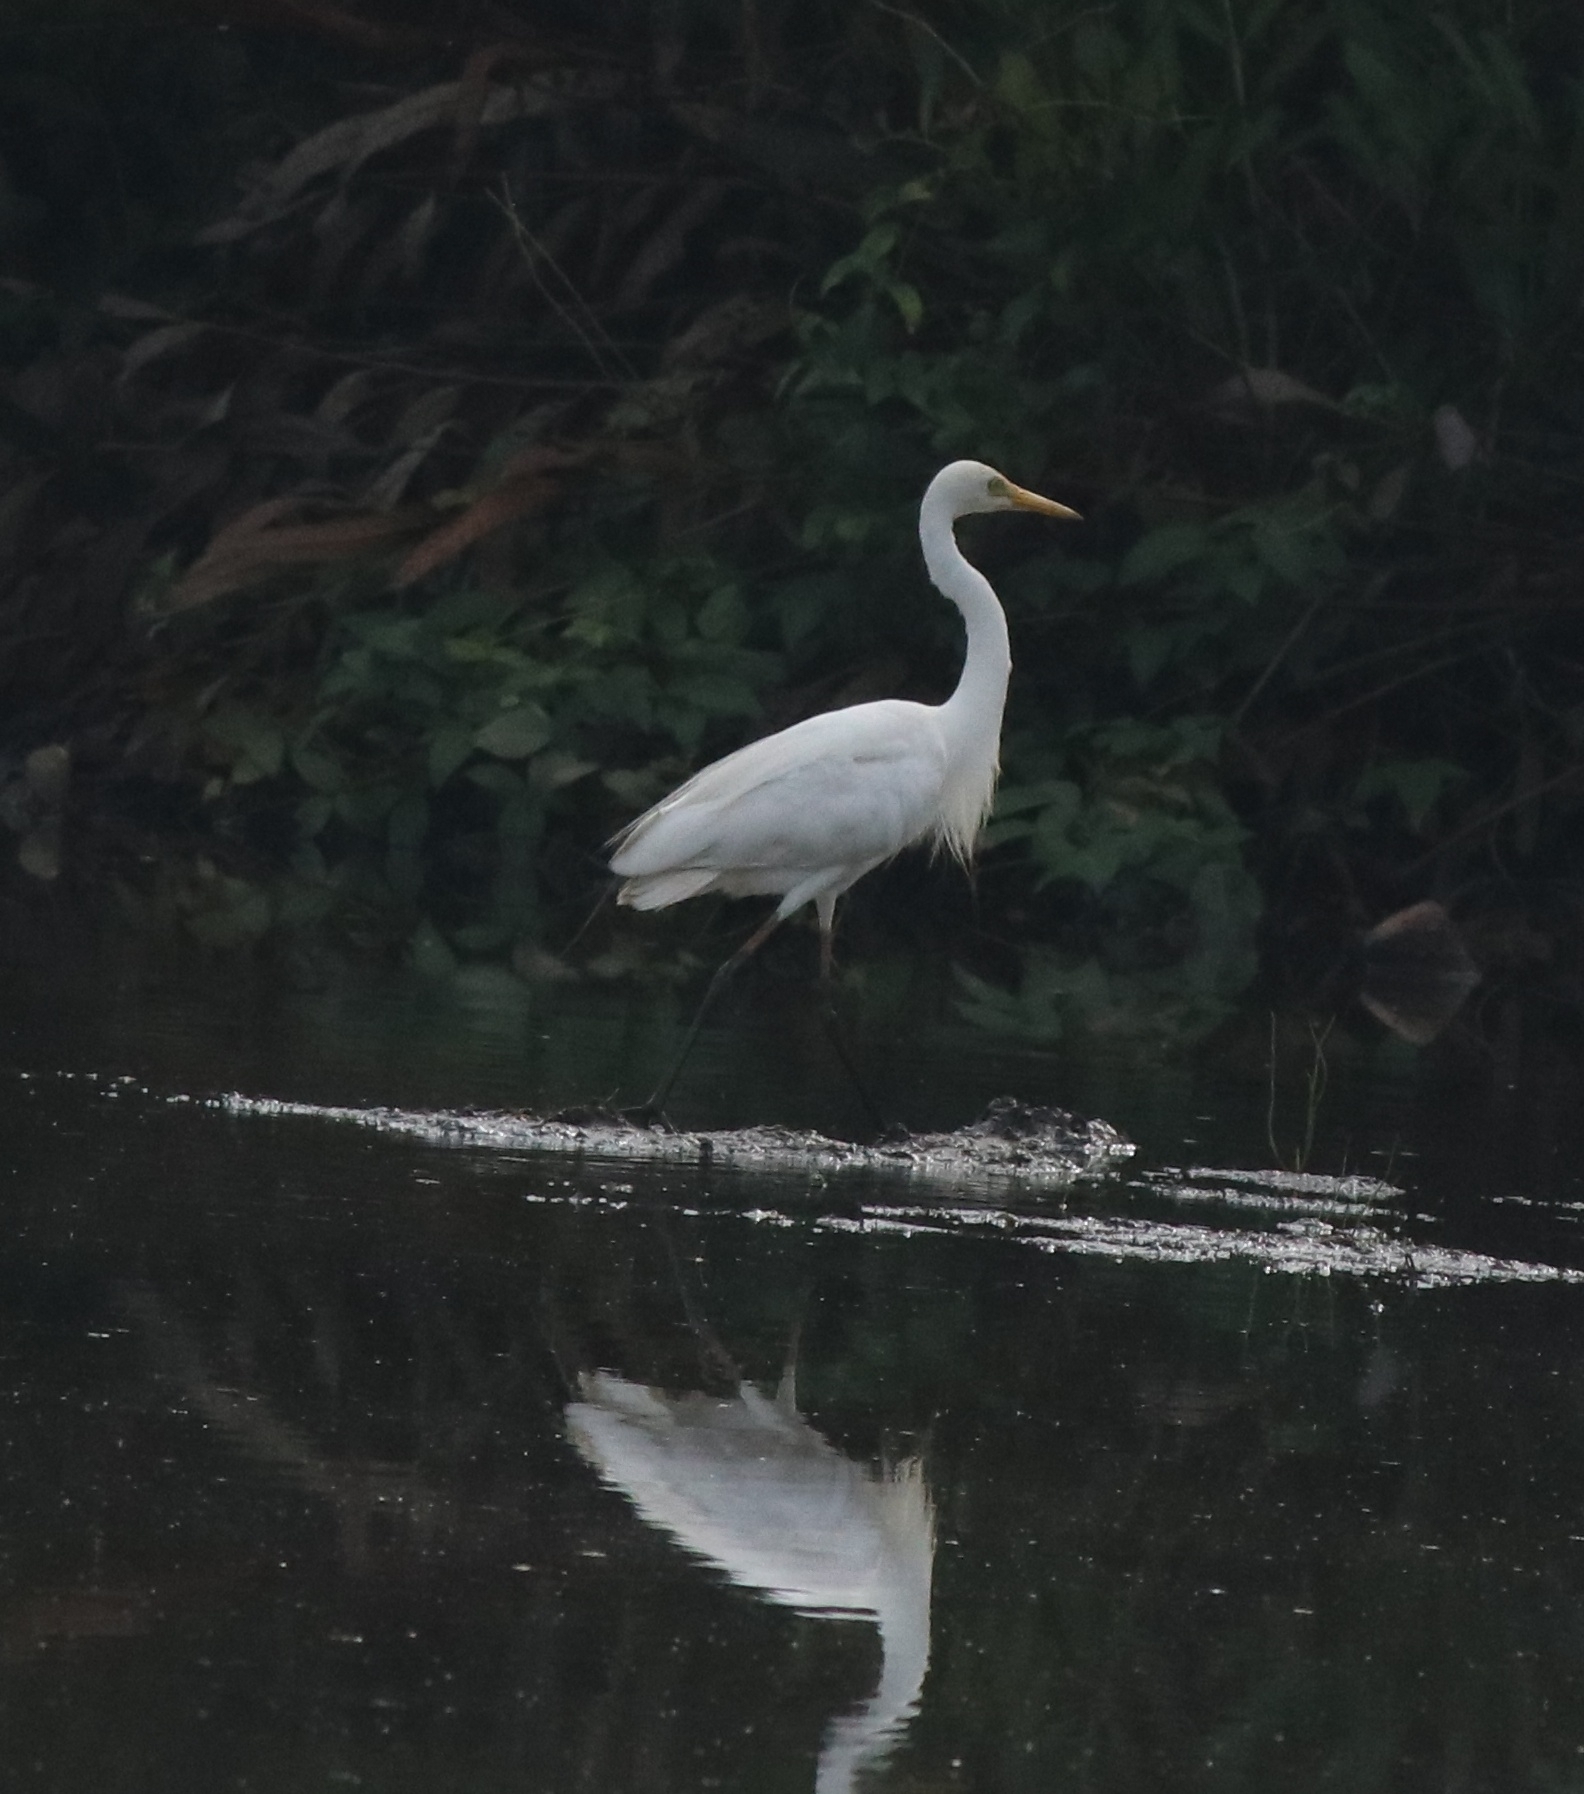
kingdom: Animalia
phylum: Chordata
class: Aves
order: Pelecaniformes
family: Ardeidae
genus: Egretta
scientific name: Egretta intermedia
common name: Intermediate egret
